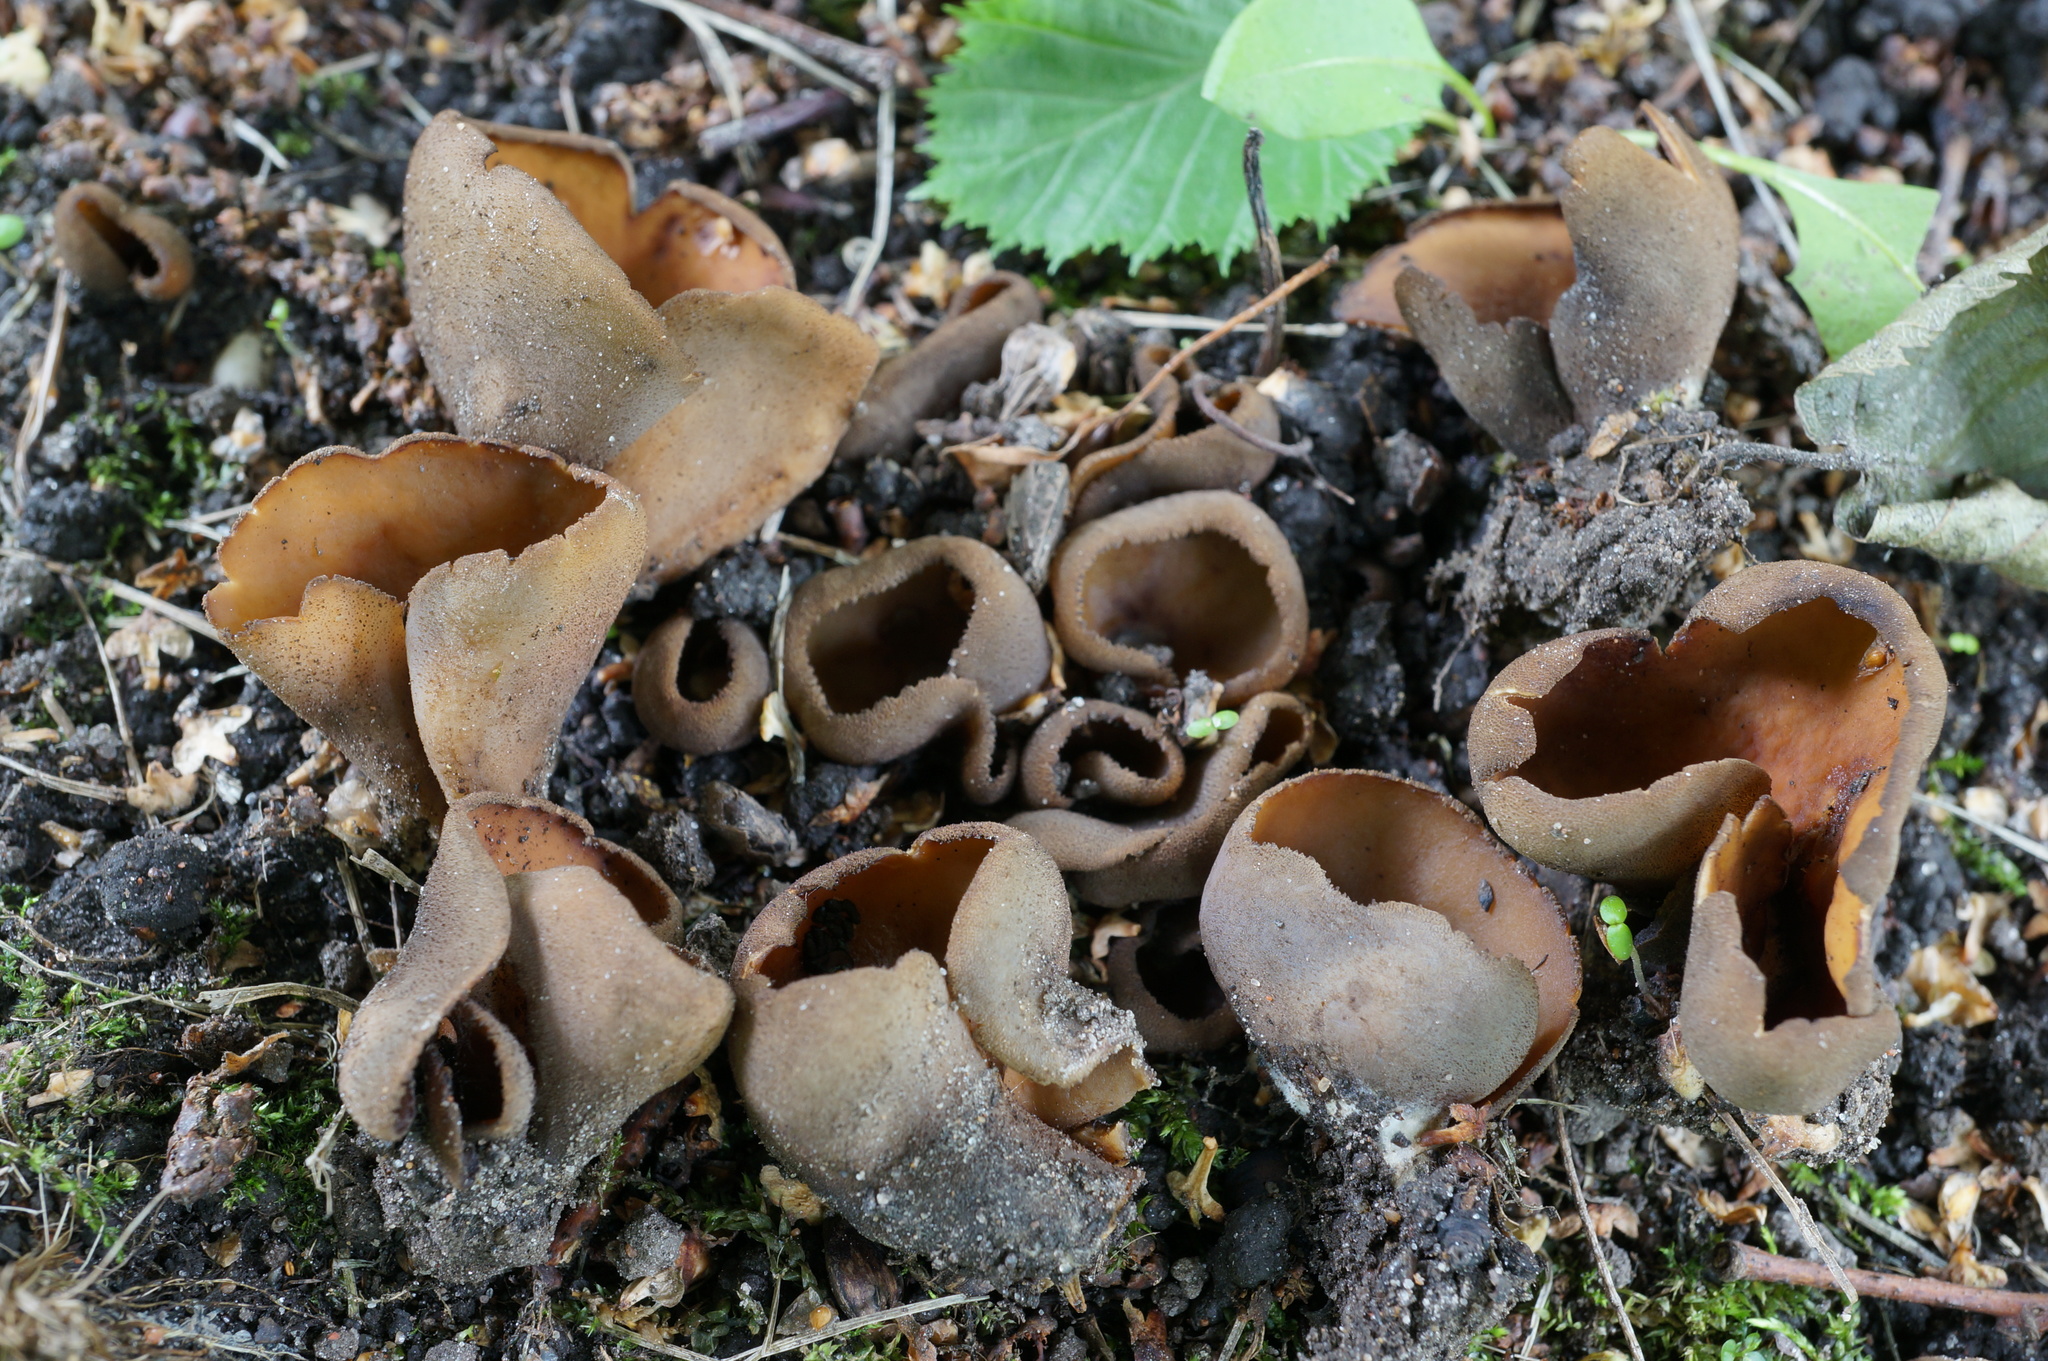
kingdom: Fungi
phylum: Ascomycota
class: Pezizomycetes
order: Pezizales
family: Otideaceae
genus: Otidea
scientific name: Otidea bufonia
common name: Toad's ear
